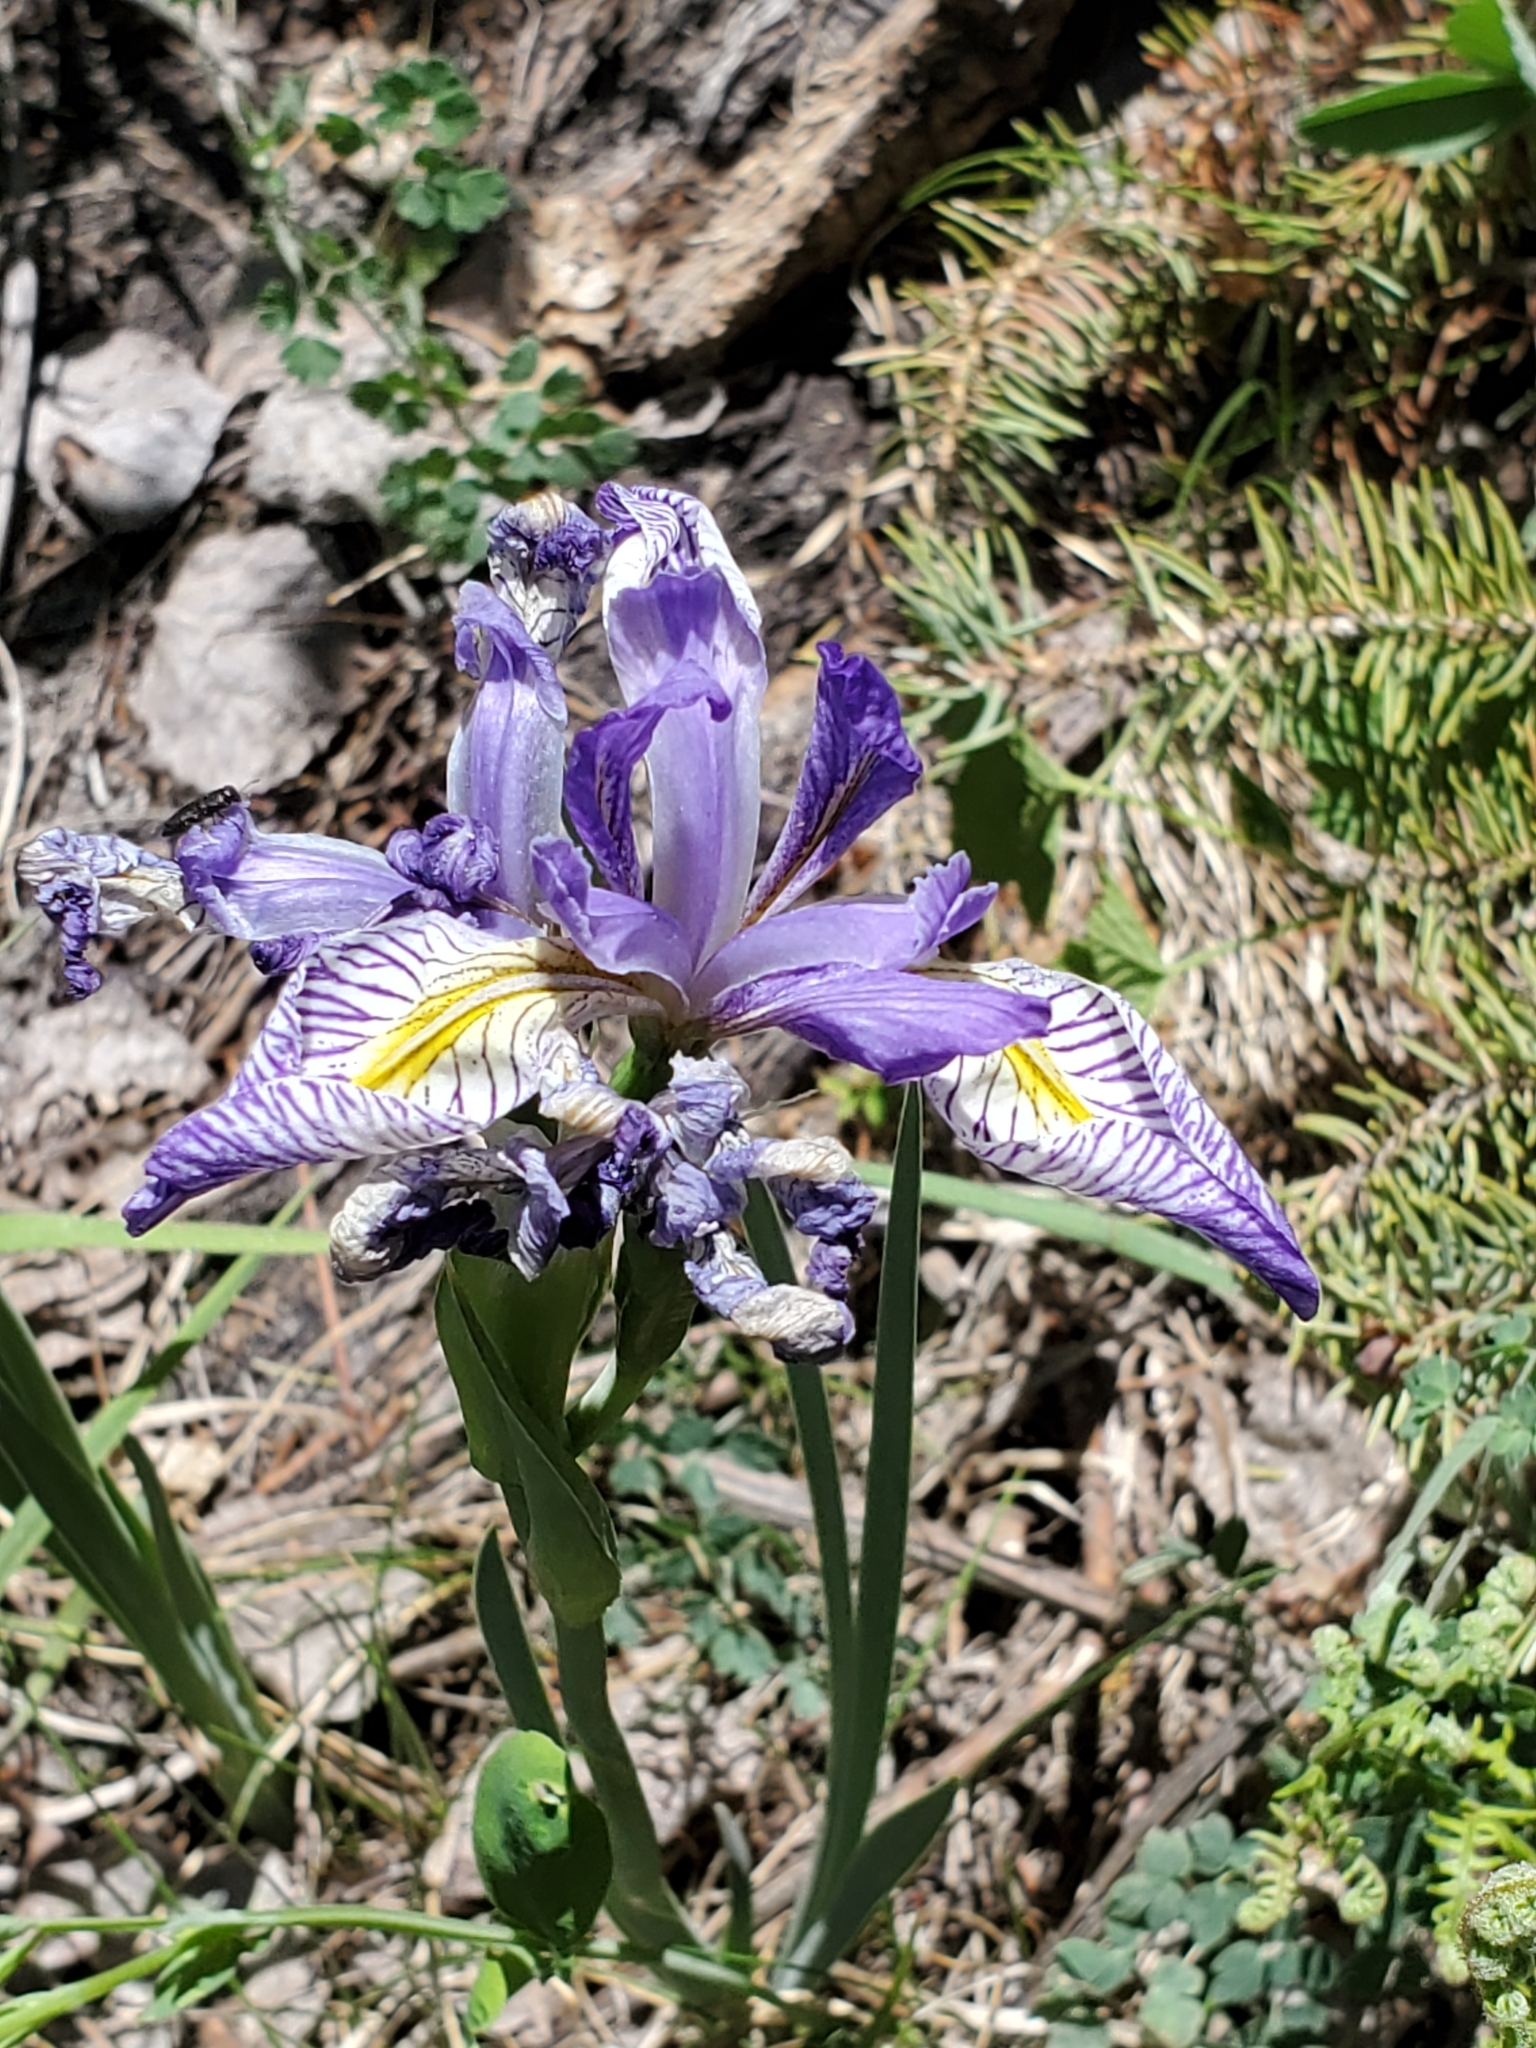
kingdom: Plantae
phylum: Tracheophyta
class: Liliopsida
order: Asparagales
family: Iridaceae
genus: Iris
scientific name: Iris missouriensis
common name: Rocky mountain iris
